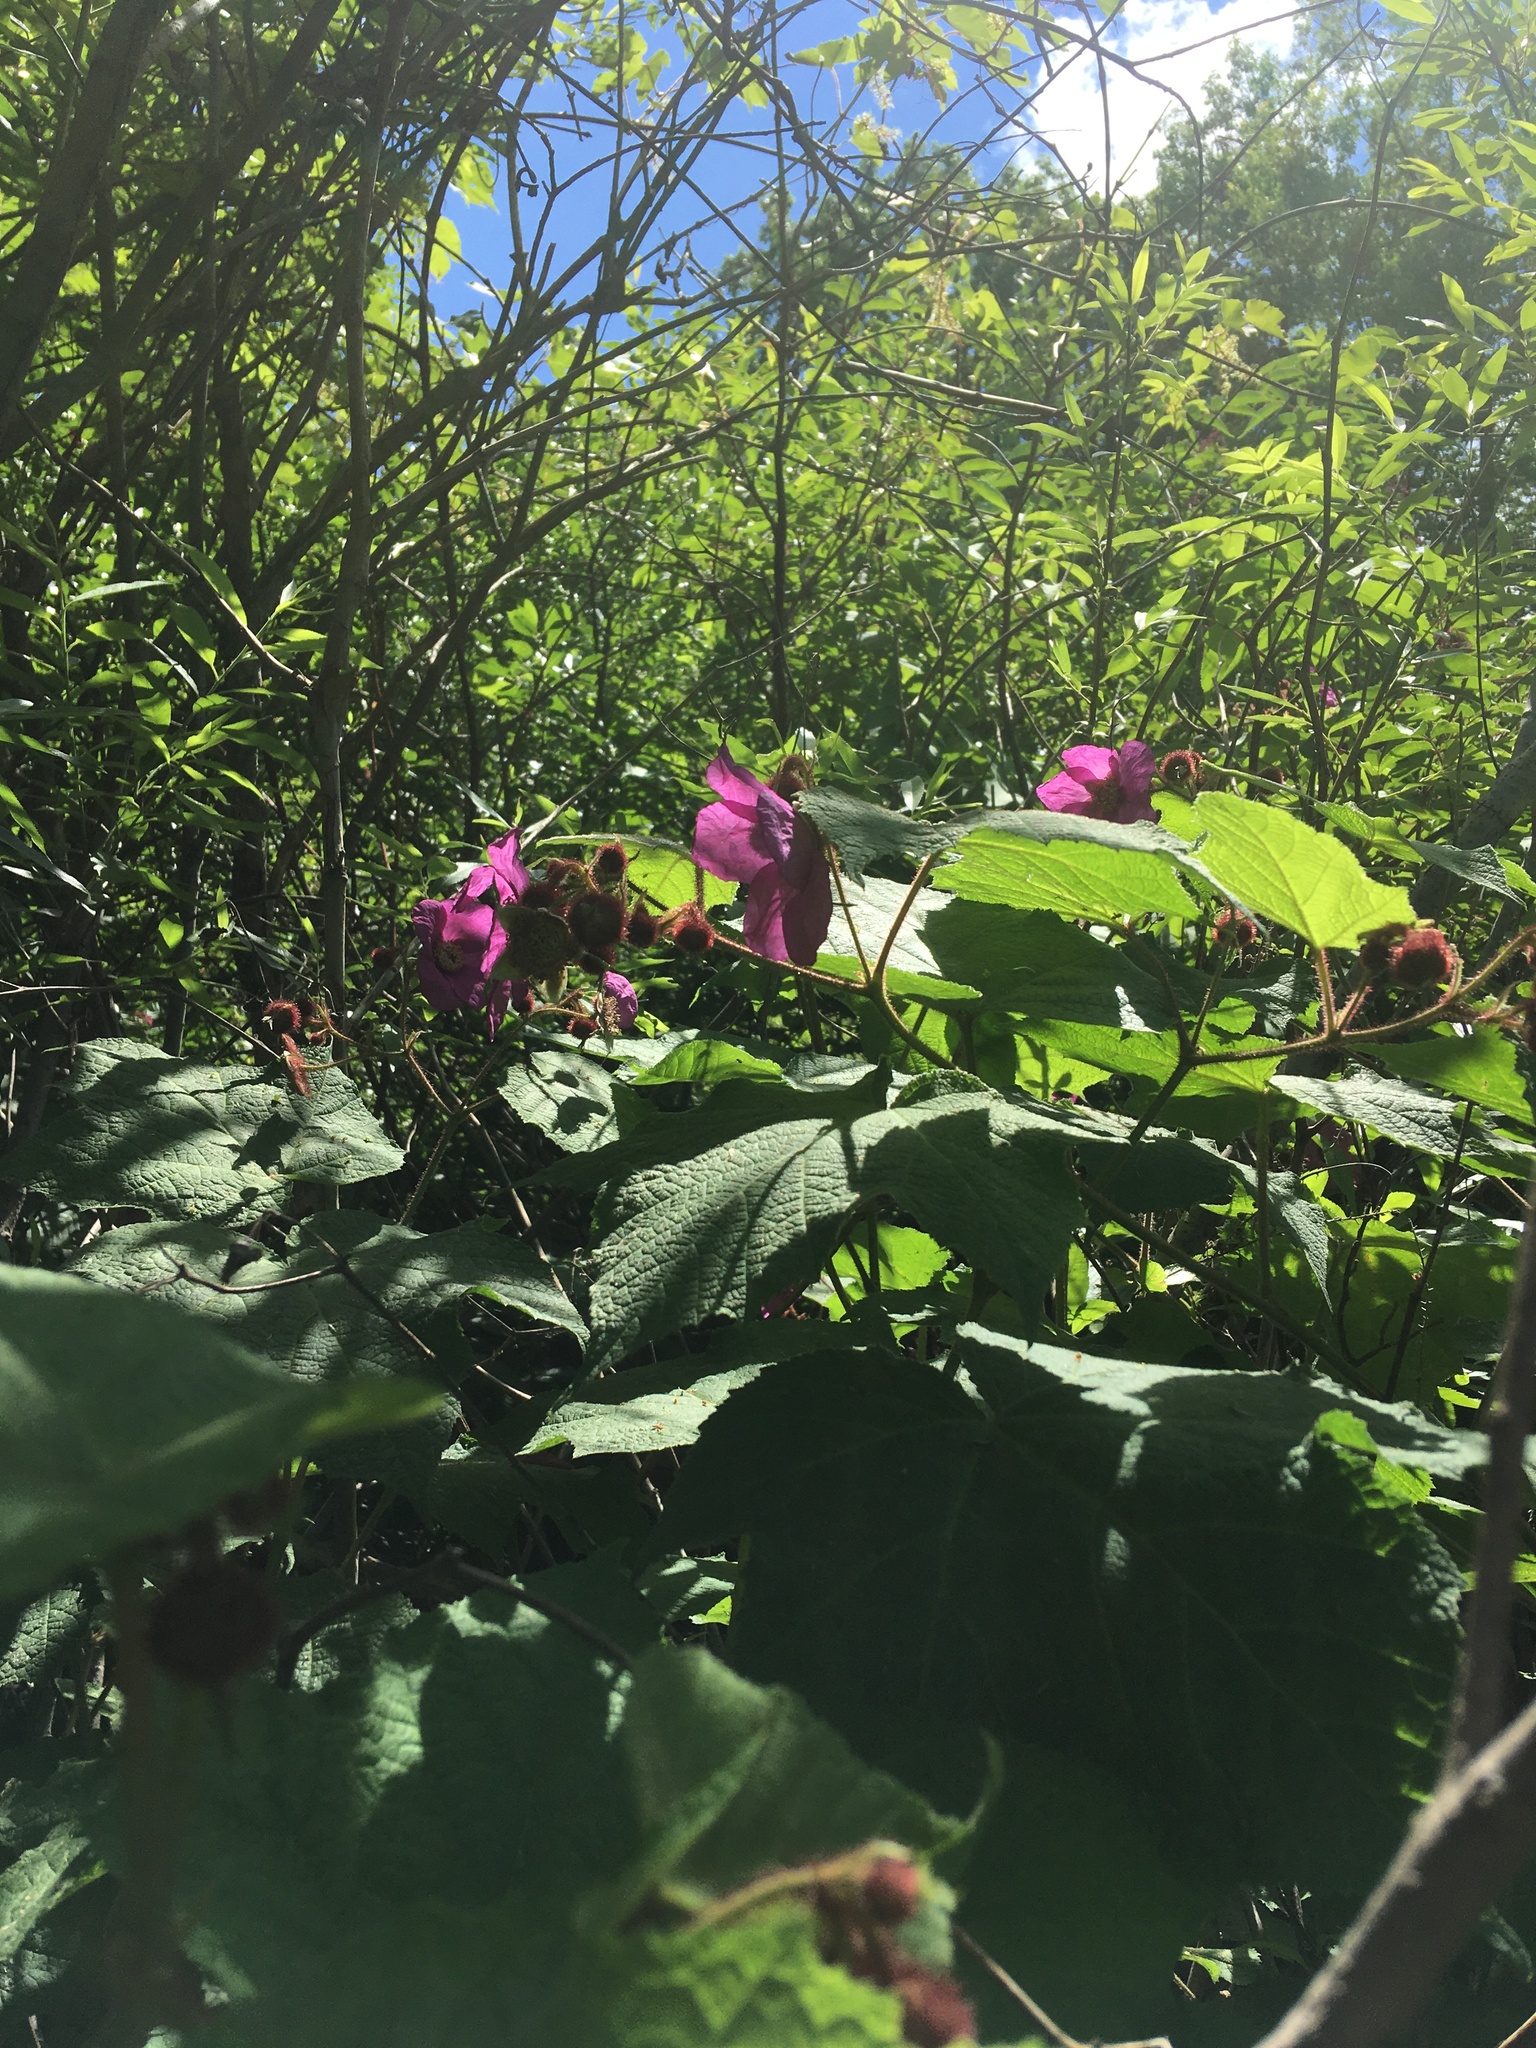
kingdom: Plantae
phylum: Tracheophyta
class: Magnoliopsida
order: Rosales
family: Rosaceae
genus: Rubus
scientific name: Rubus odoratus
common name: Purple-flowered raspberry
